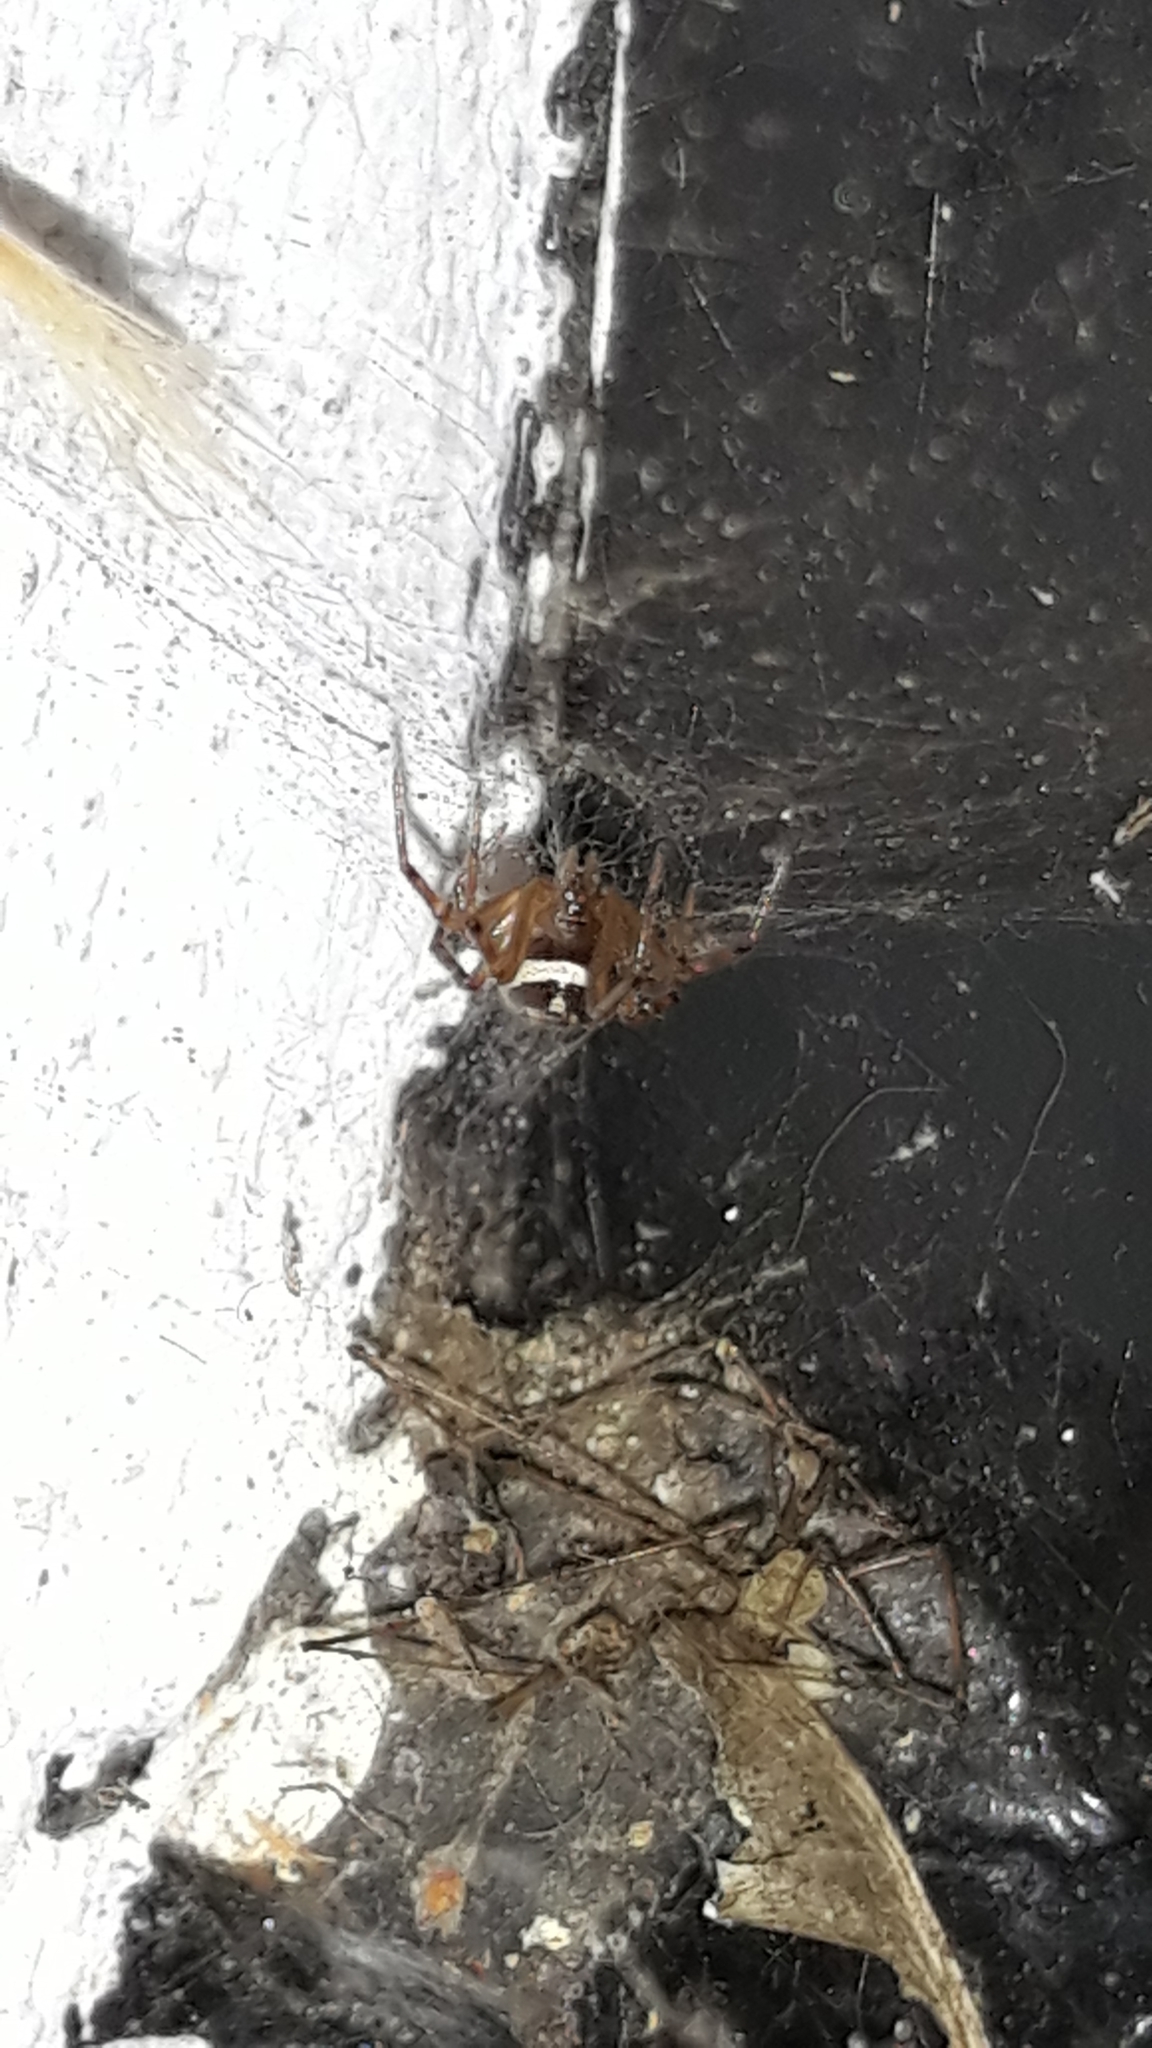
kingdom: Animalia
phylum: Arthropoda
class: Arachnida
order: Araneae
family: Theridiidae
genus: Steatoda
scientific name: Steatoda nobilis
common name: Cobweb weaver
